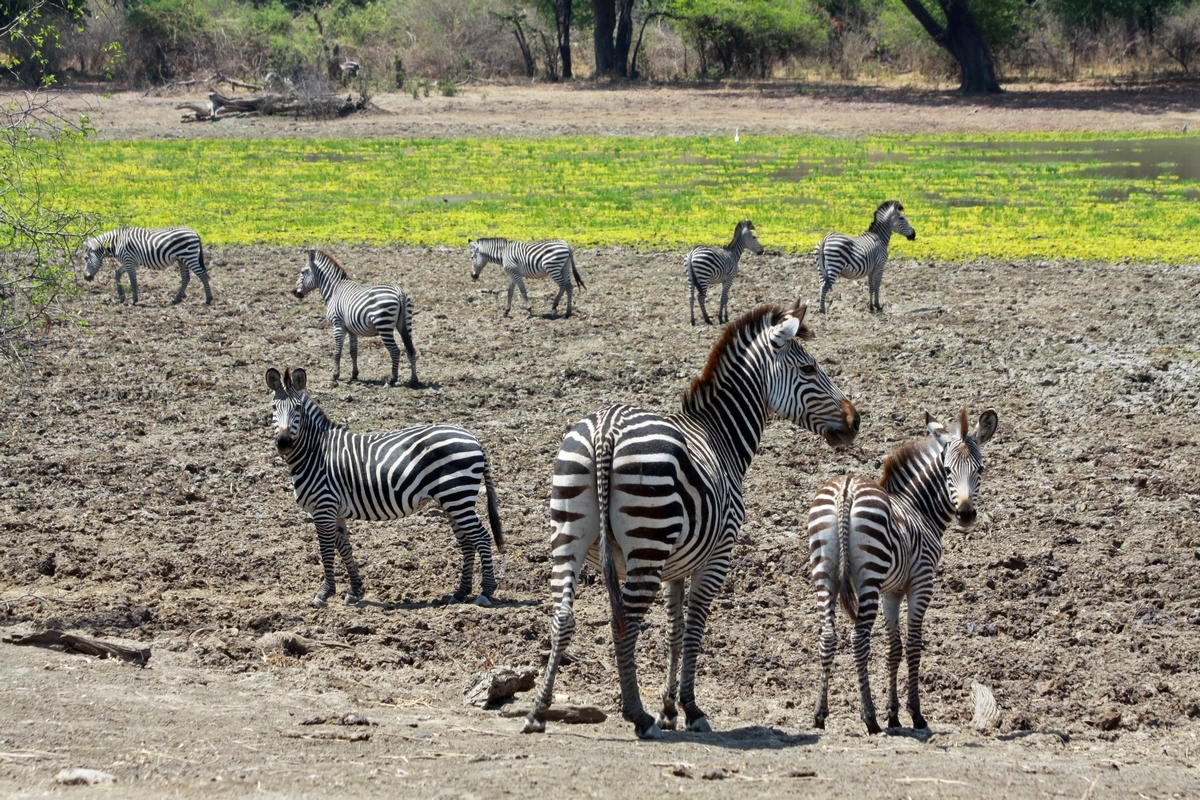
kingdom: Animalia
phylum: Chordata
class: Mammalia
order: Perissodactyla
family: Equidae
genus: Equus
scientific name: Equus quagga
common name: Plains zebra
